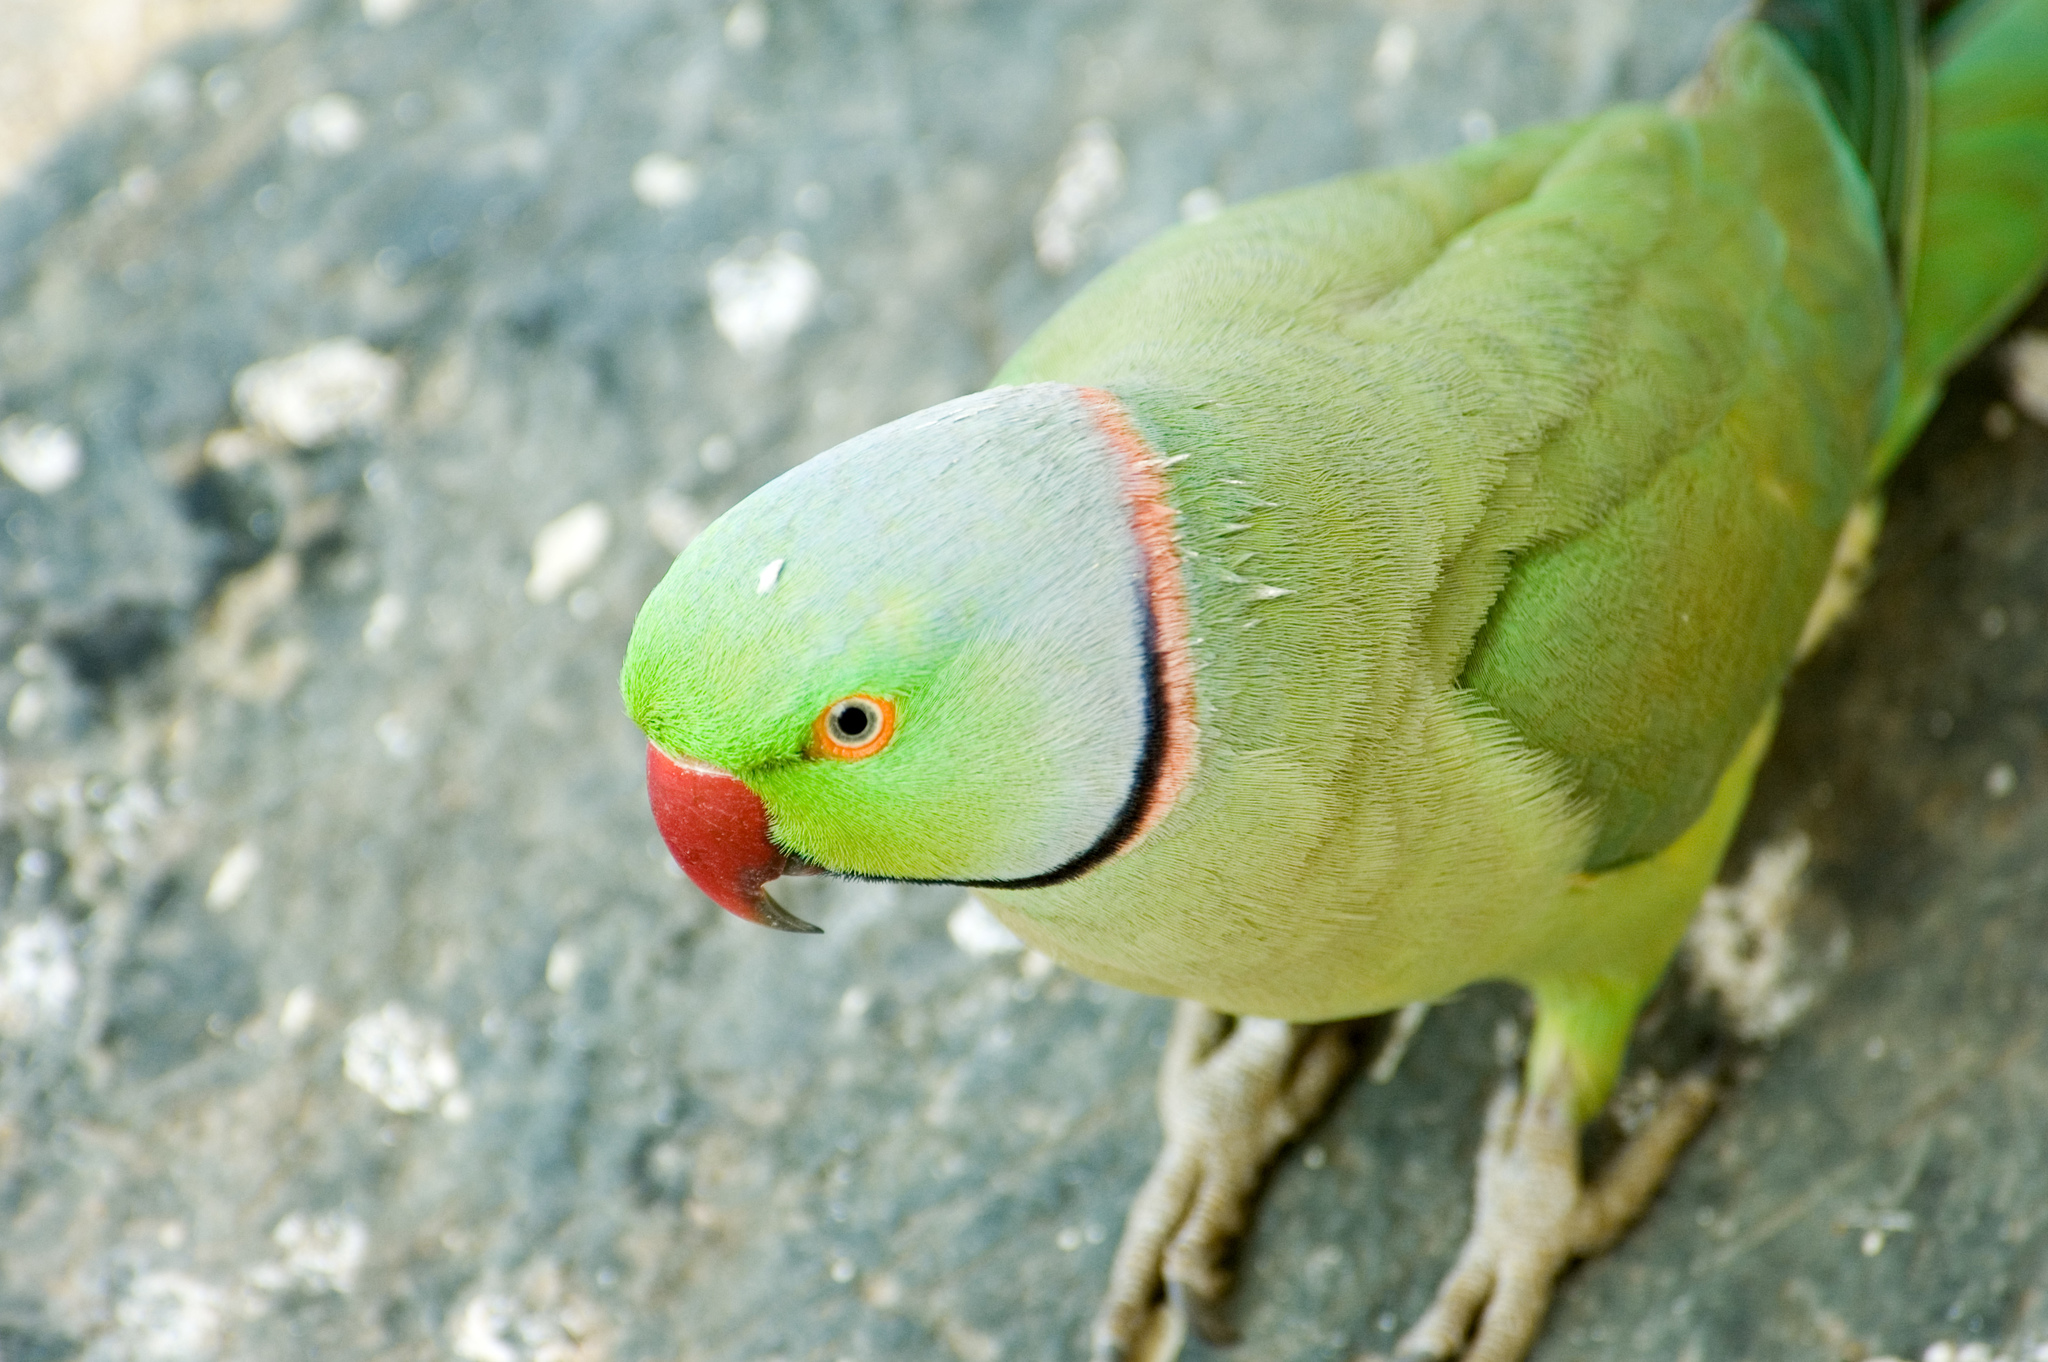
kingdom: Animalia
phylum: Chordata
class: Aves
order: Psittaciformes
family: Psittacidae
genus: Psittacula
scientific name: Psittacula krameri
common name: Rose-ringed parakeet
